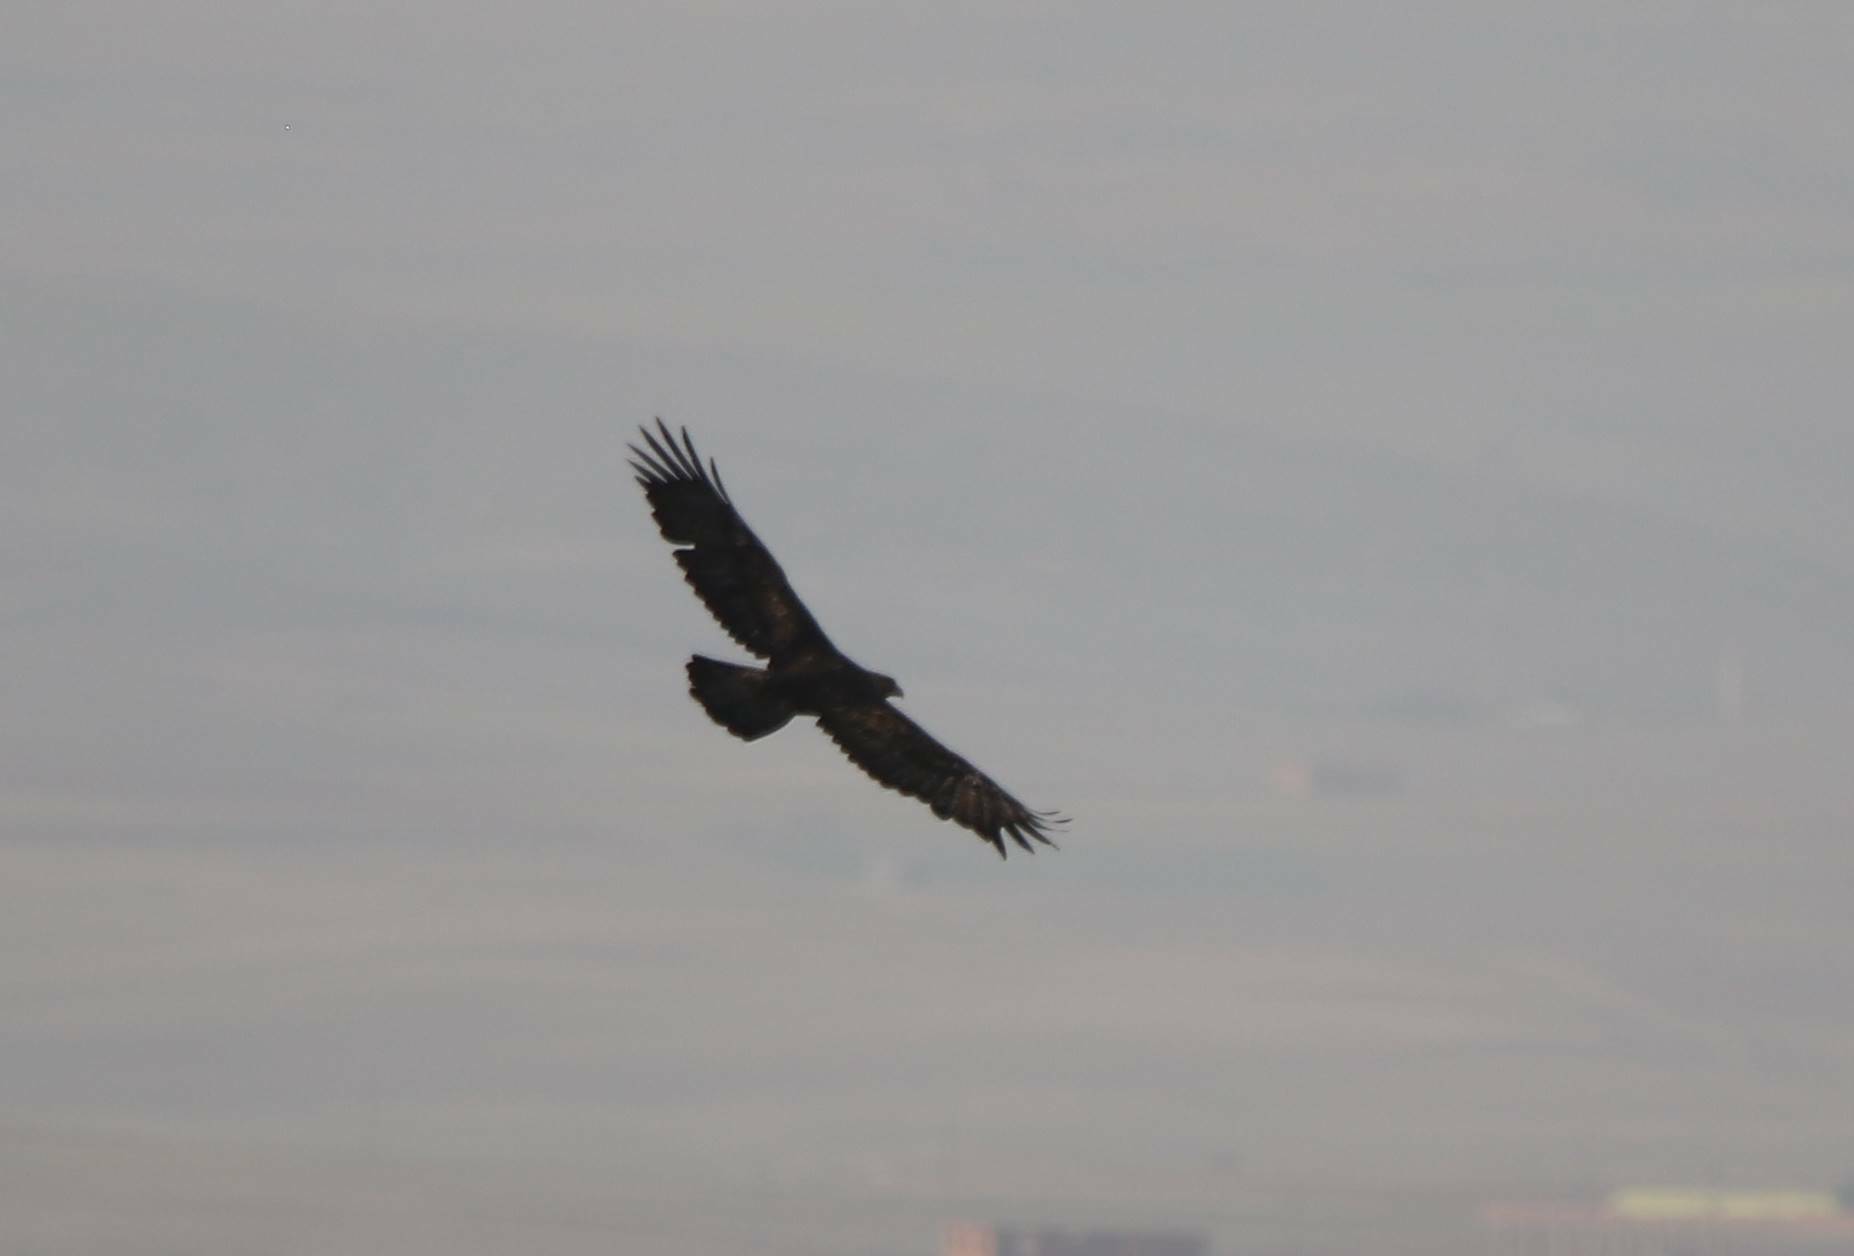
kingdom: Animalia
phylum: Chordata
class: Aves
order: Accipitriformes
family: Accipitridae
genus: Aquila
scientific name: Aquila chrysaetos
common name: Golden eagle
